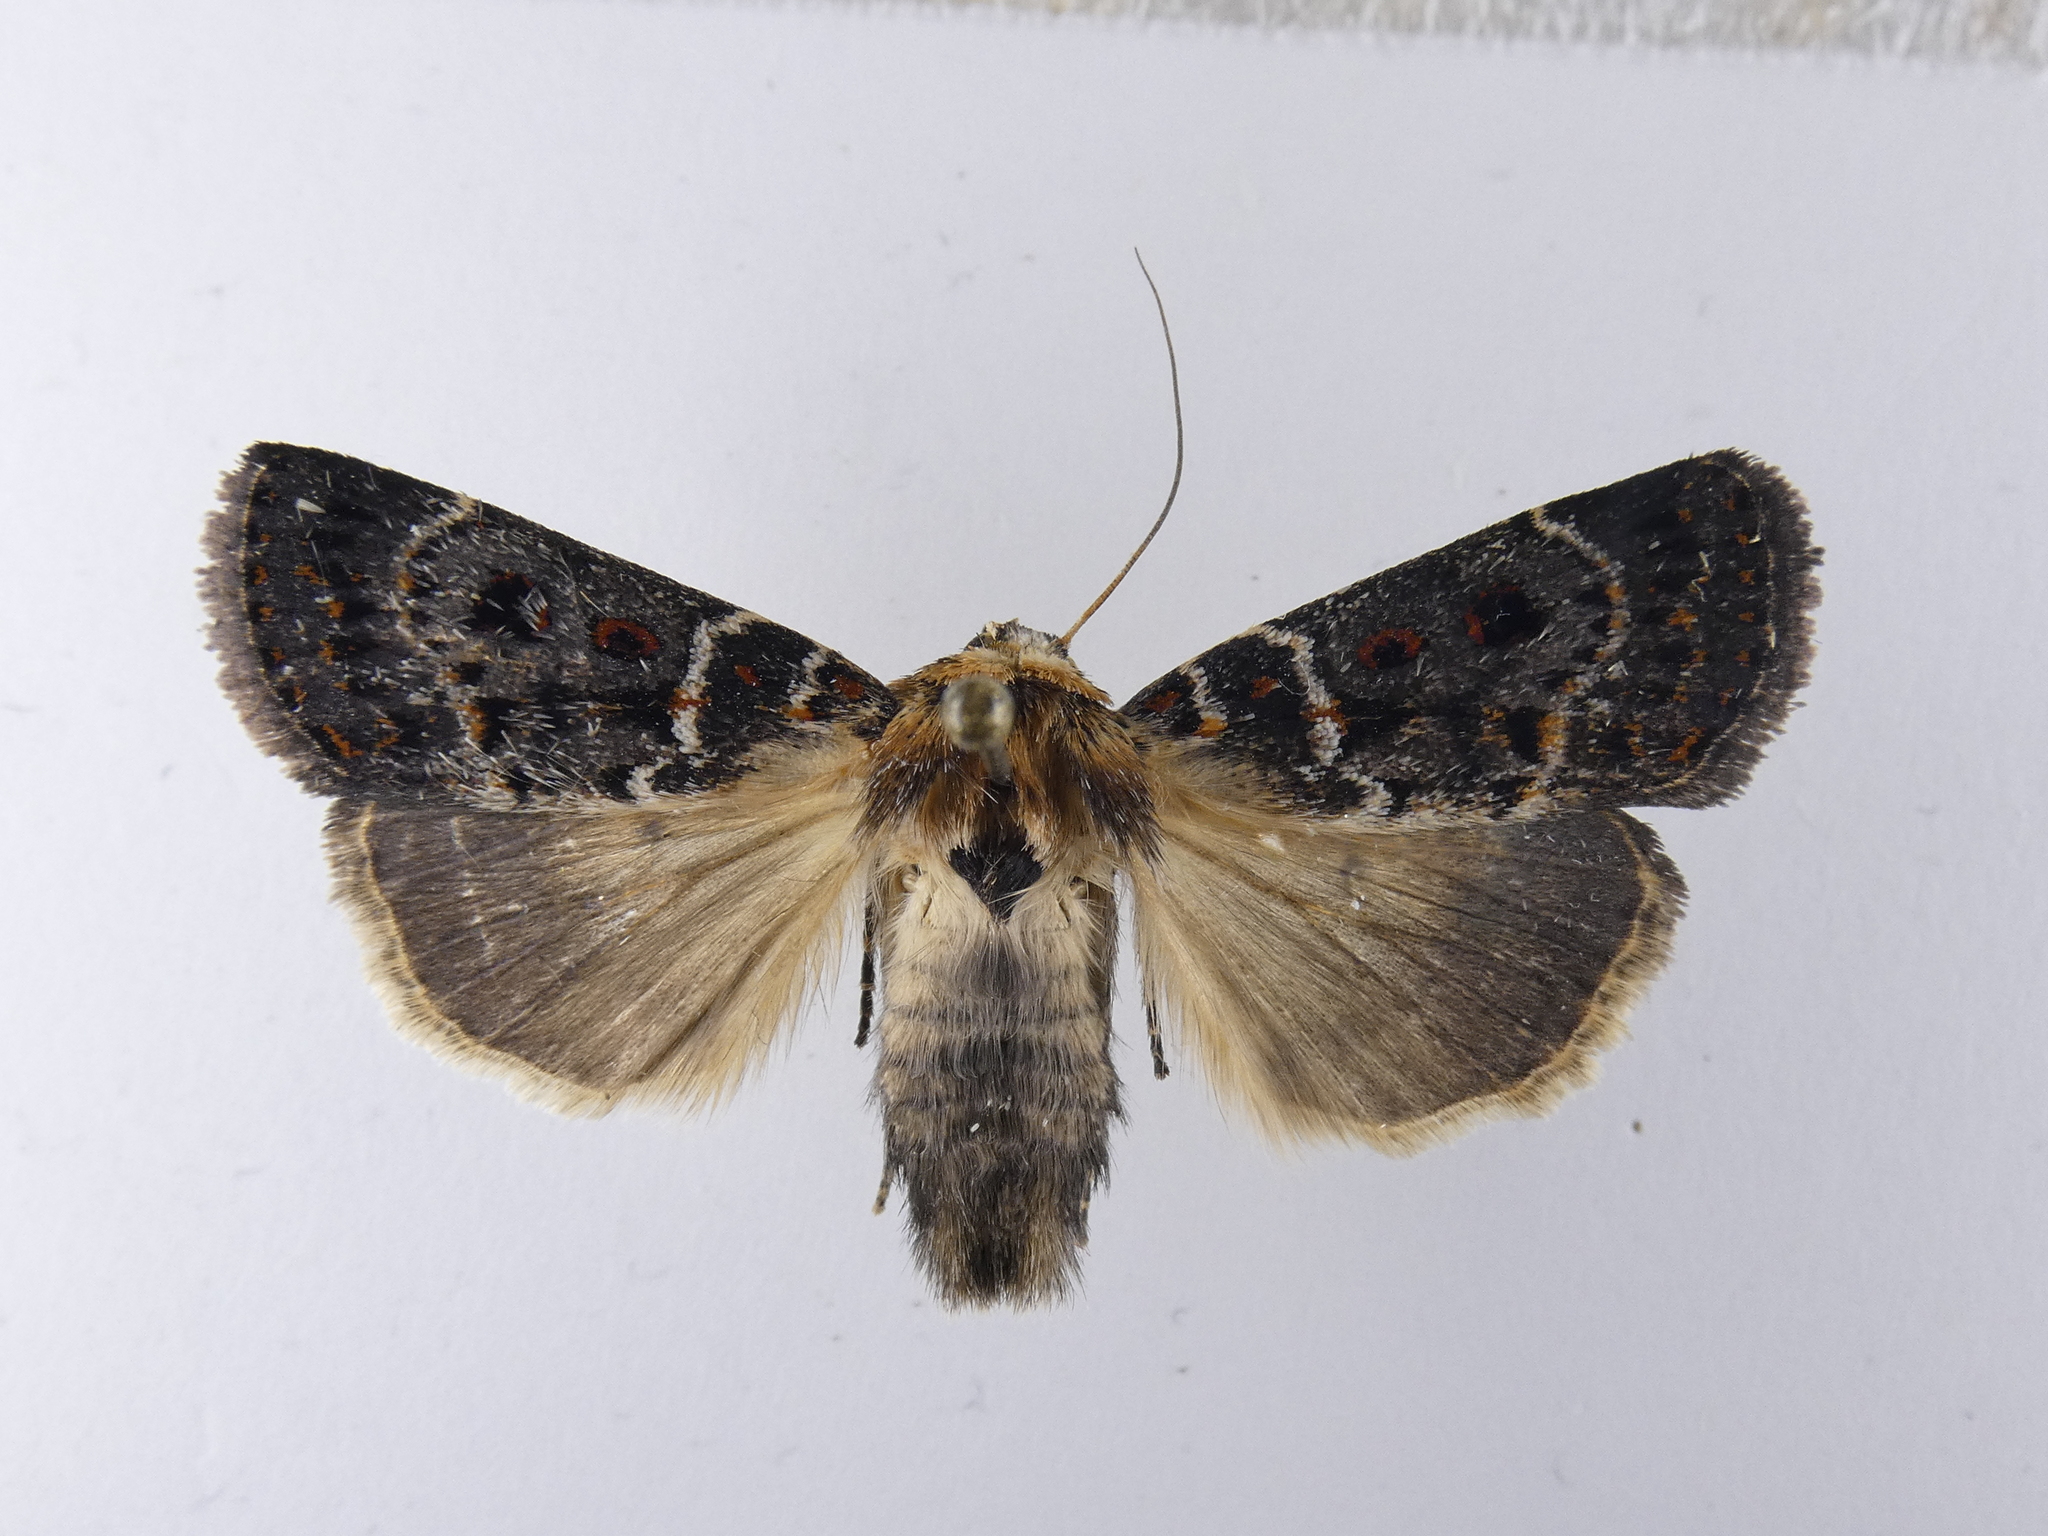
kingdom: Animalia
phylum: Arthropoda
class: Insecta
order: Lepidoptera
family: Noctuidae
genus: Proteuxoa
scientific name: Proteuxoa sanguinipuncta
